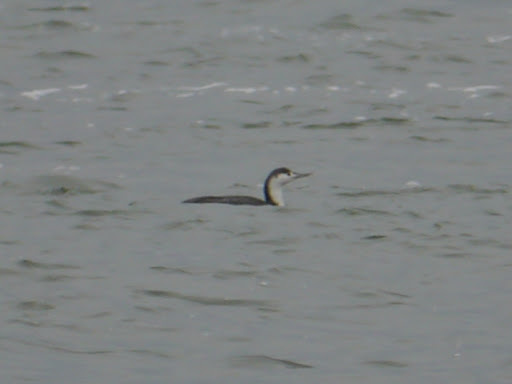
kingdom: Animalia
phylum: Chordata
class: Aves
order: Gaviiformes
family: Gaviidae
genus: Gavia
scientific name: Gavia stellata
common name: Red-throated loon
